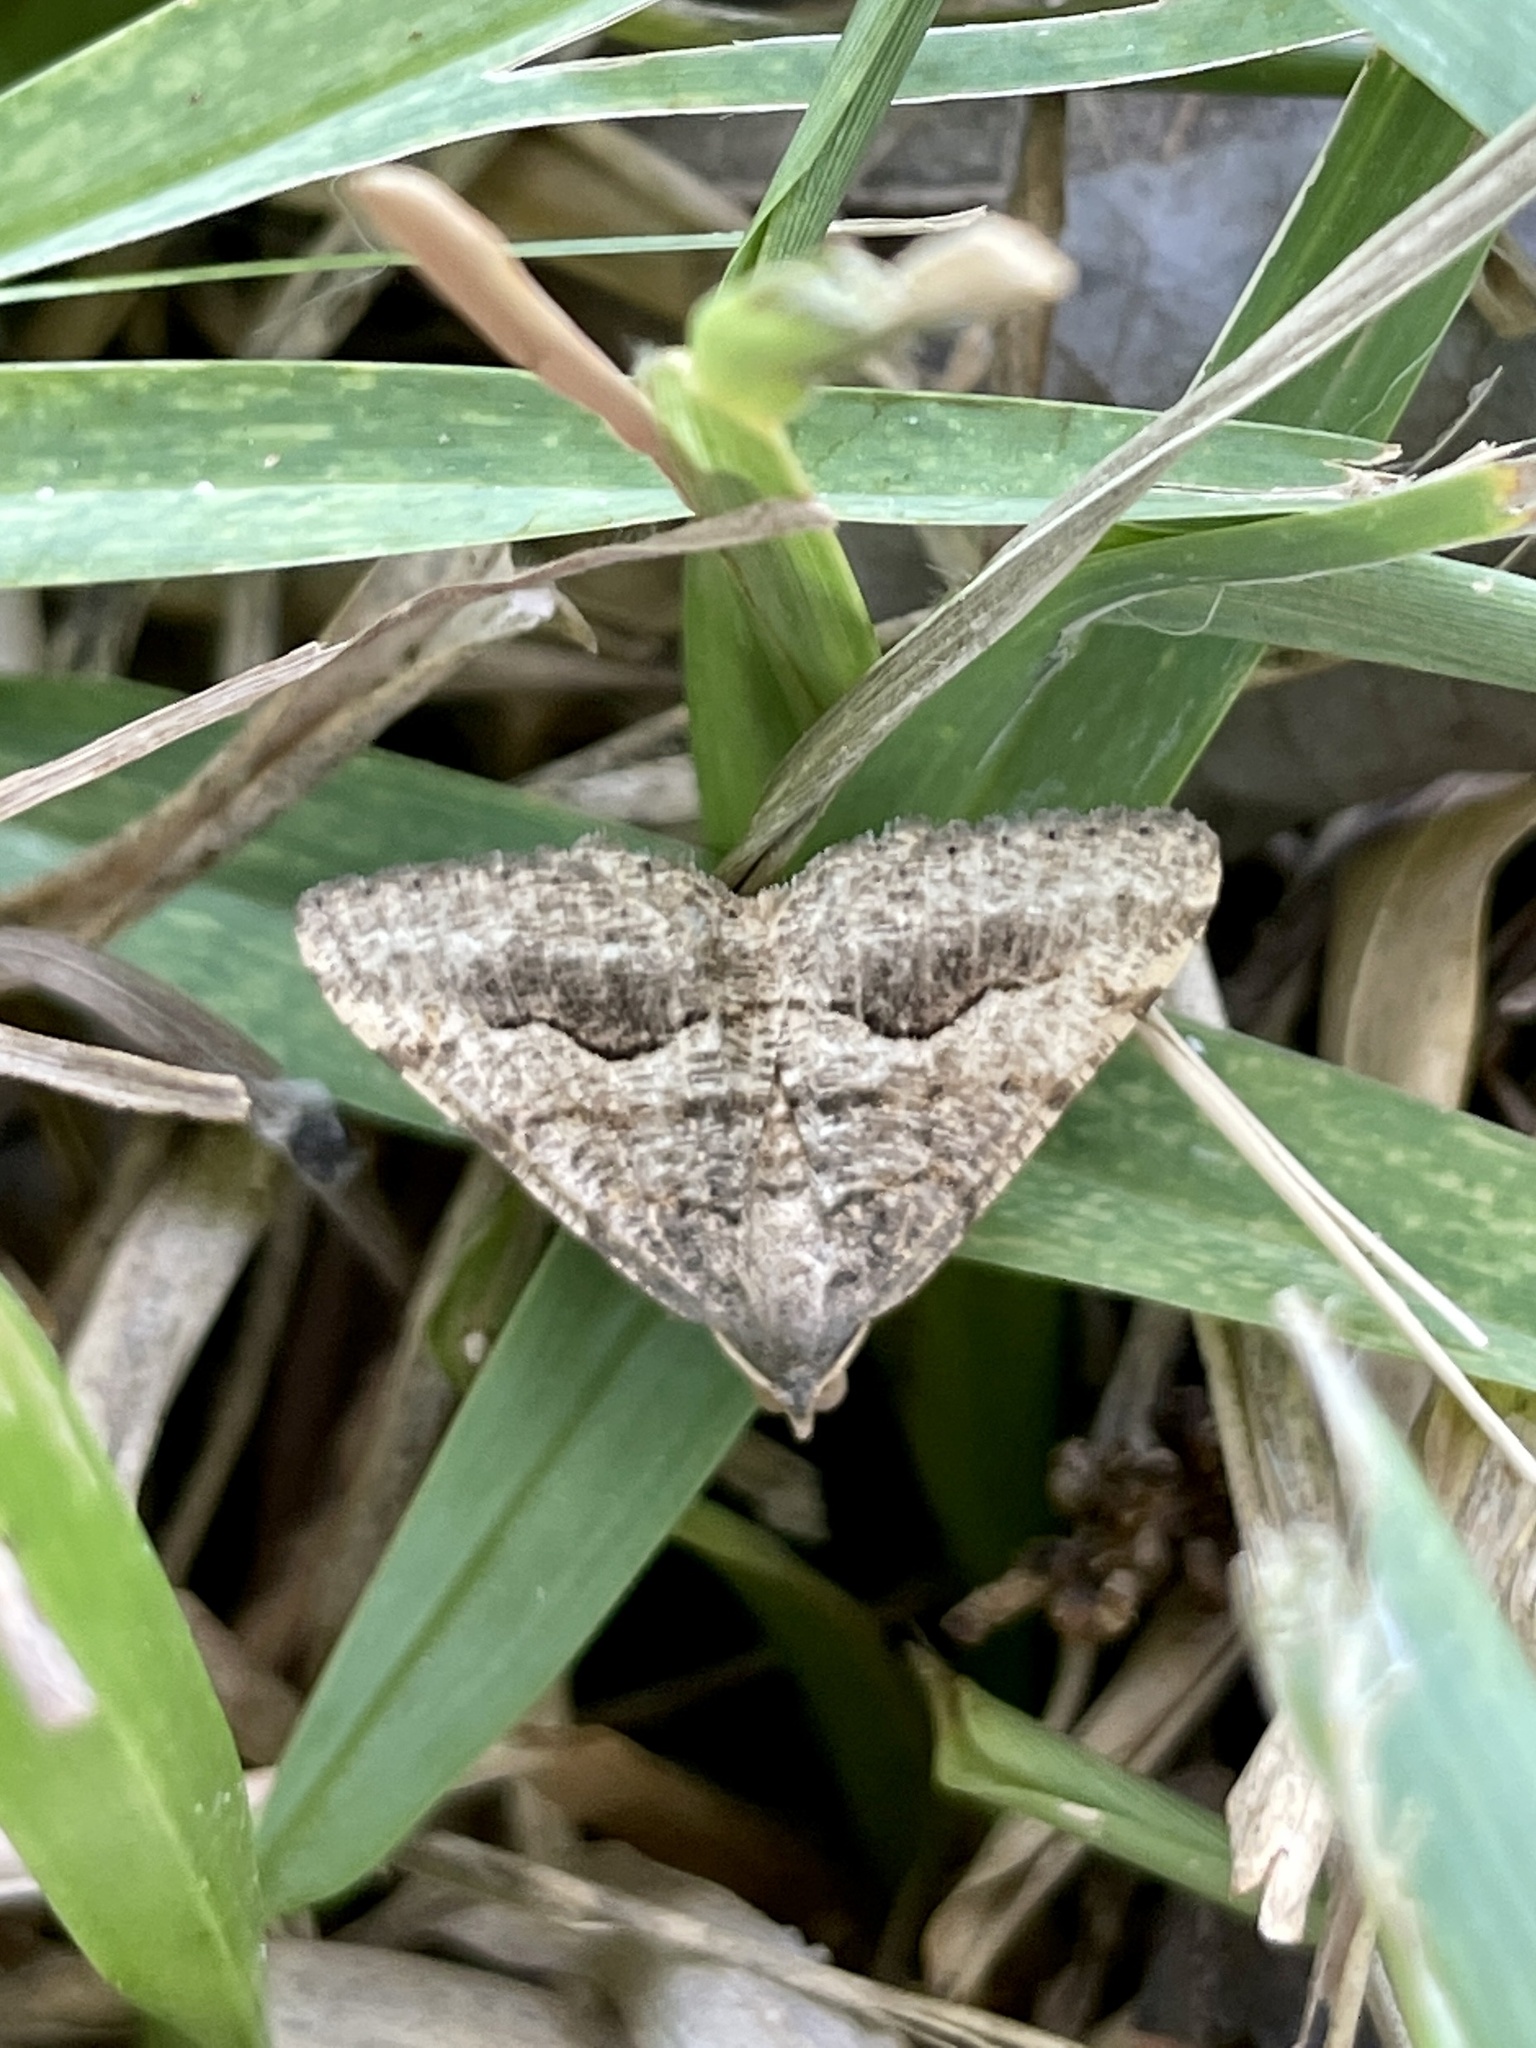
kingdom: Animalia
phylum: Arthropoda
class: Insecta
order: Lepidoptera
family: Geometridae
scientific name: Geometridae
